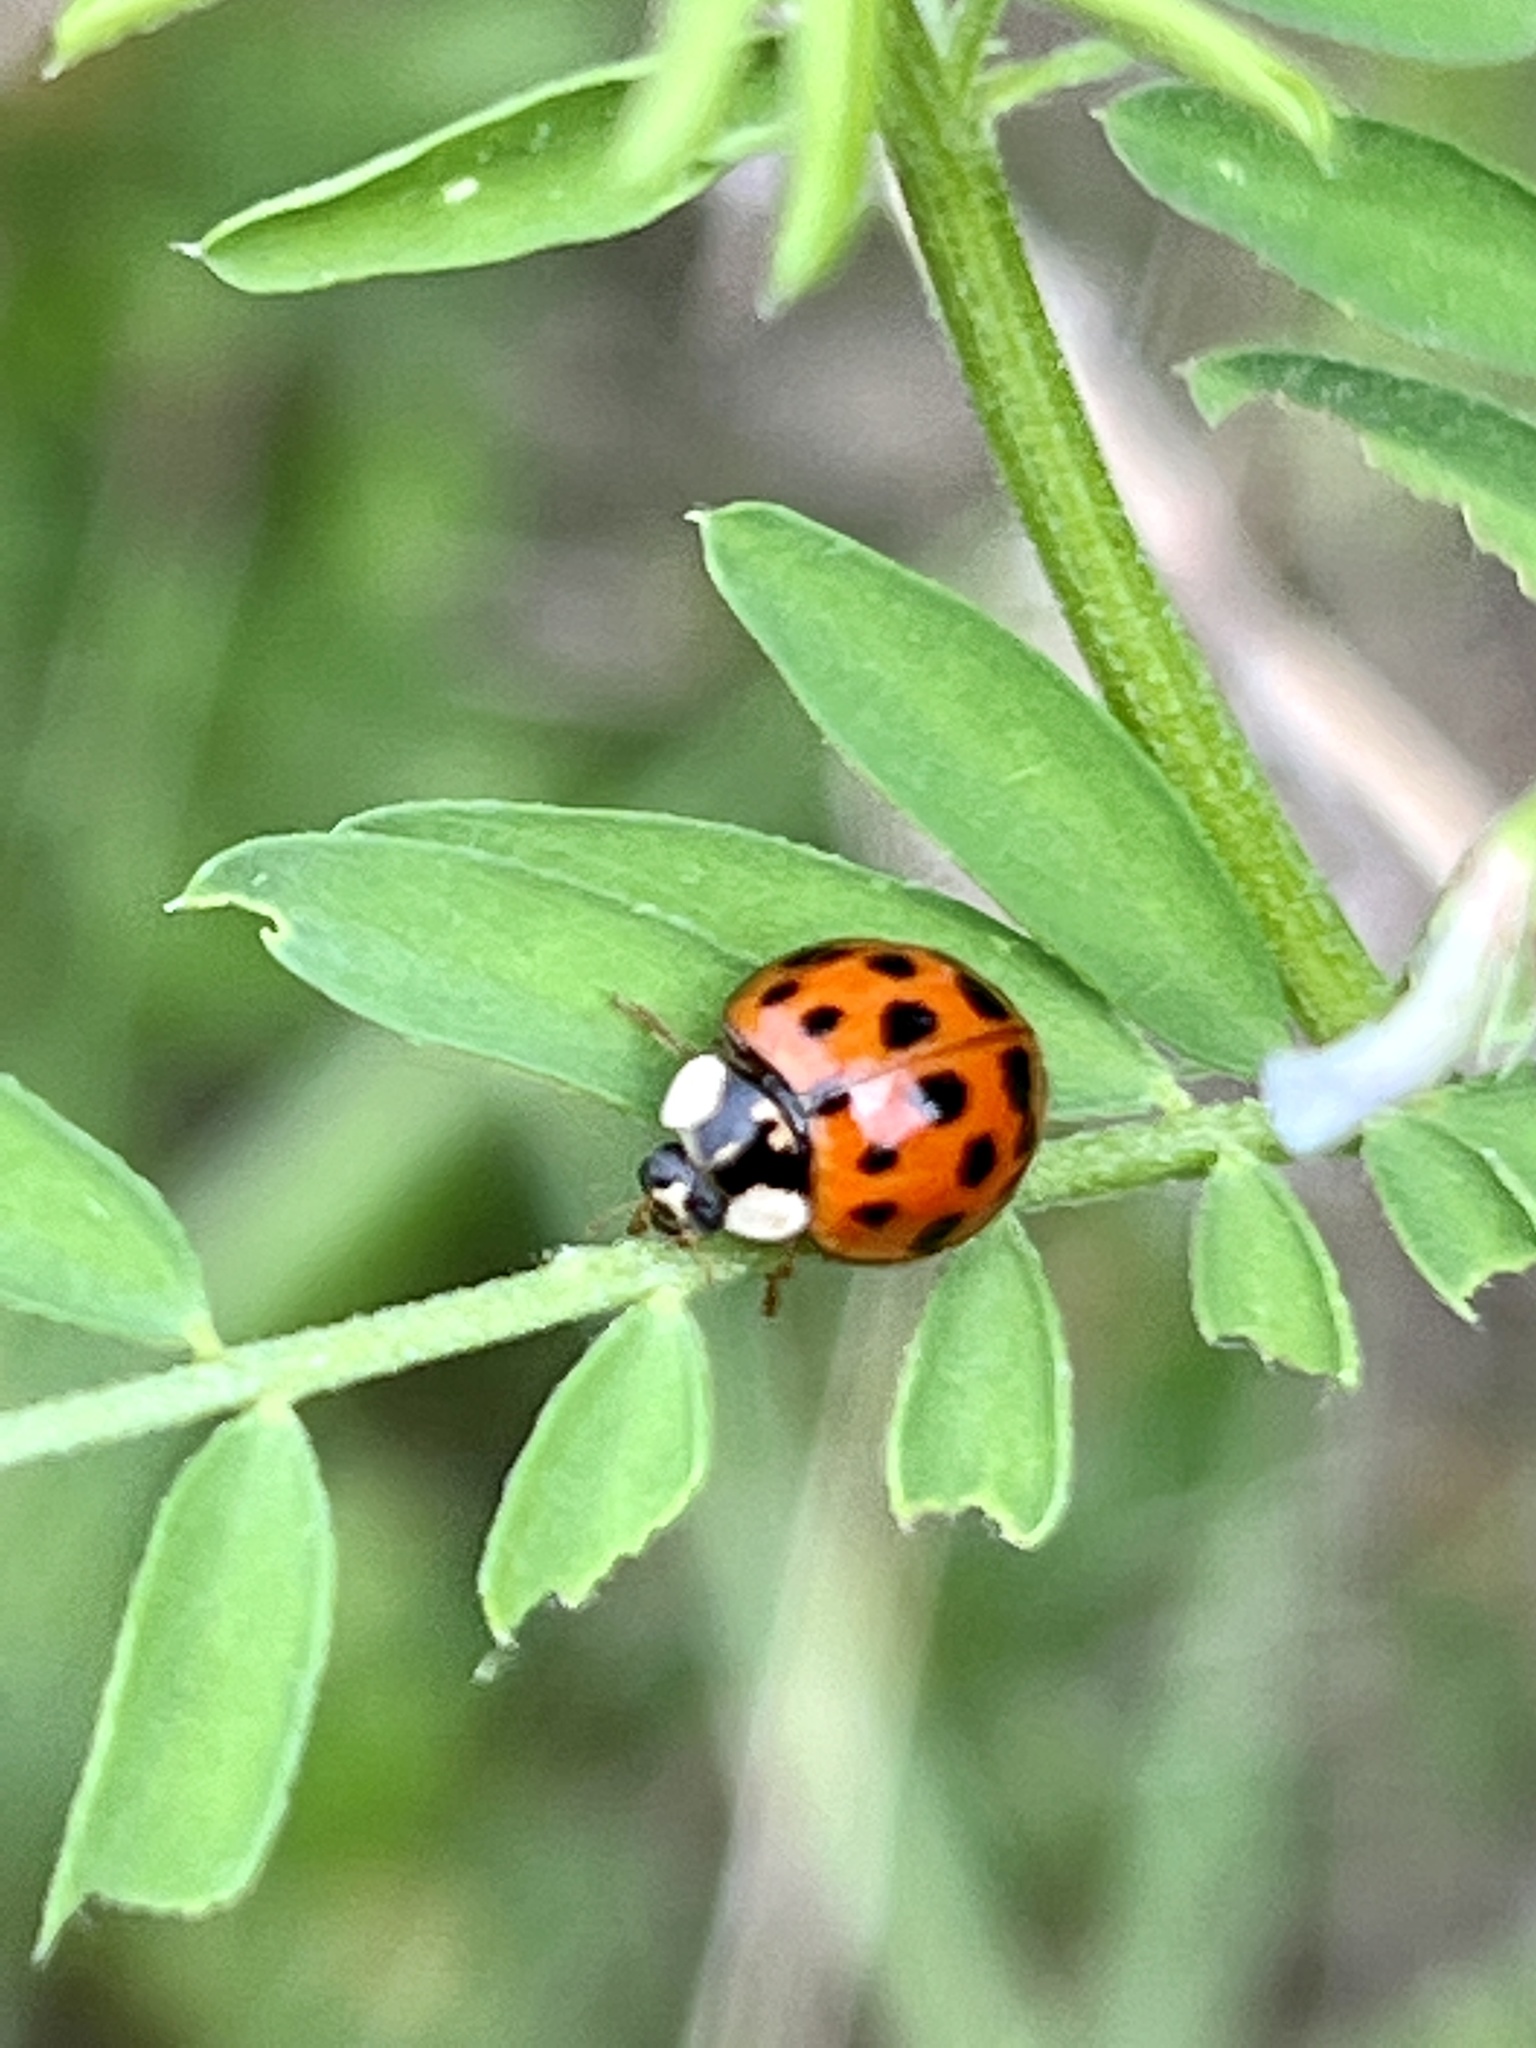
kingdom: Animalia
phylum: Arthropoda
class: Insecta
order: Coleoptera
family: Coccinellidae
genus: Harmonia
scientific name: Harmonia axyridis
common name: Harlequin ladybird
